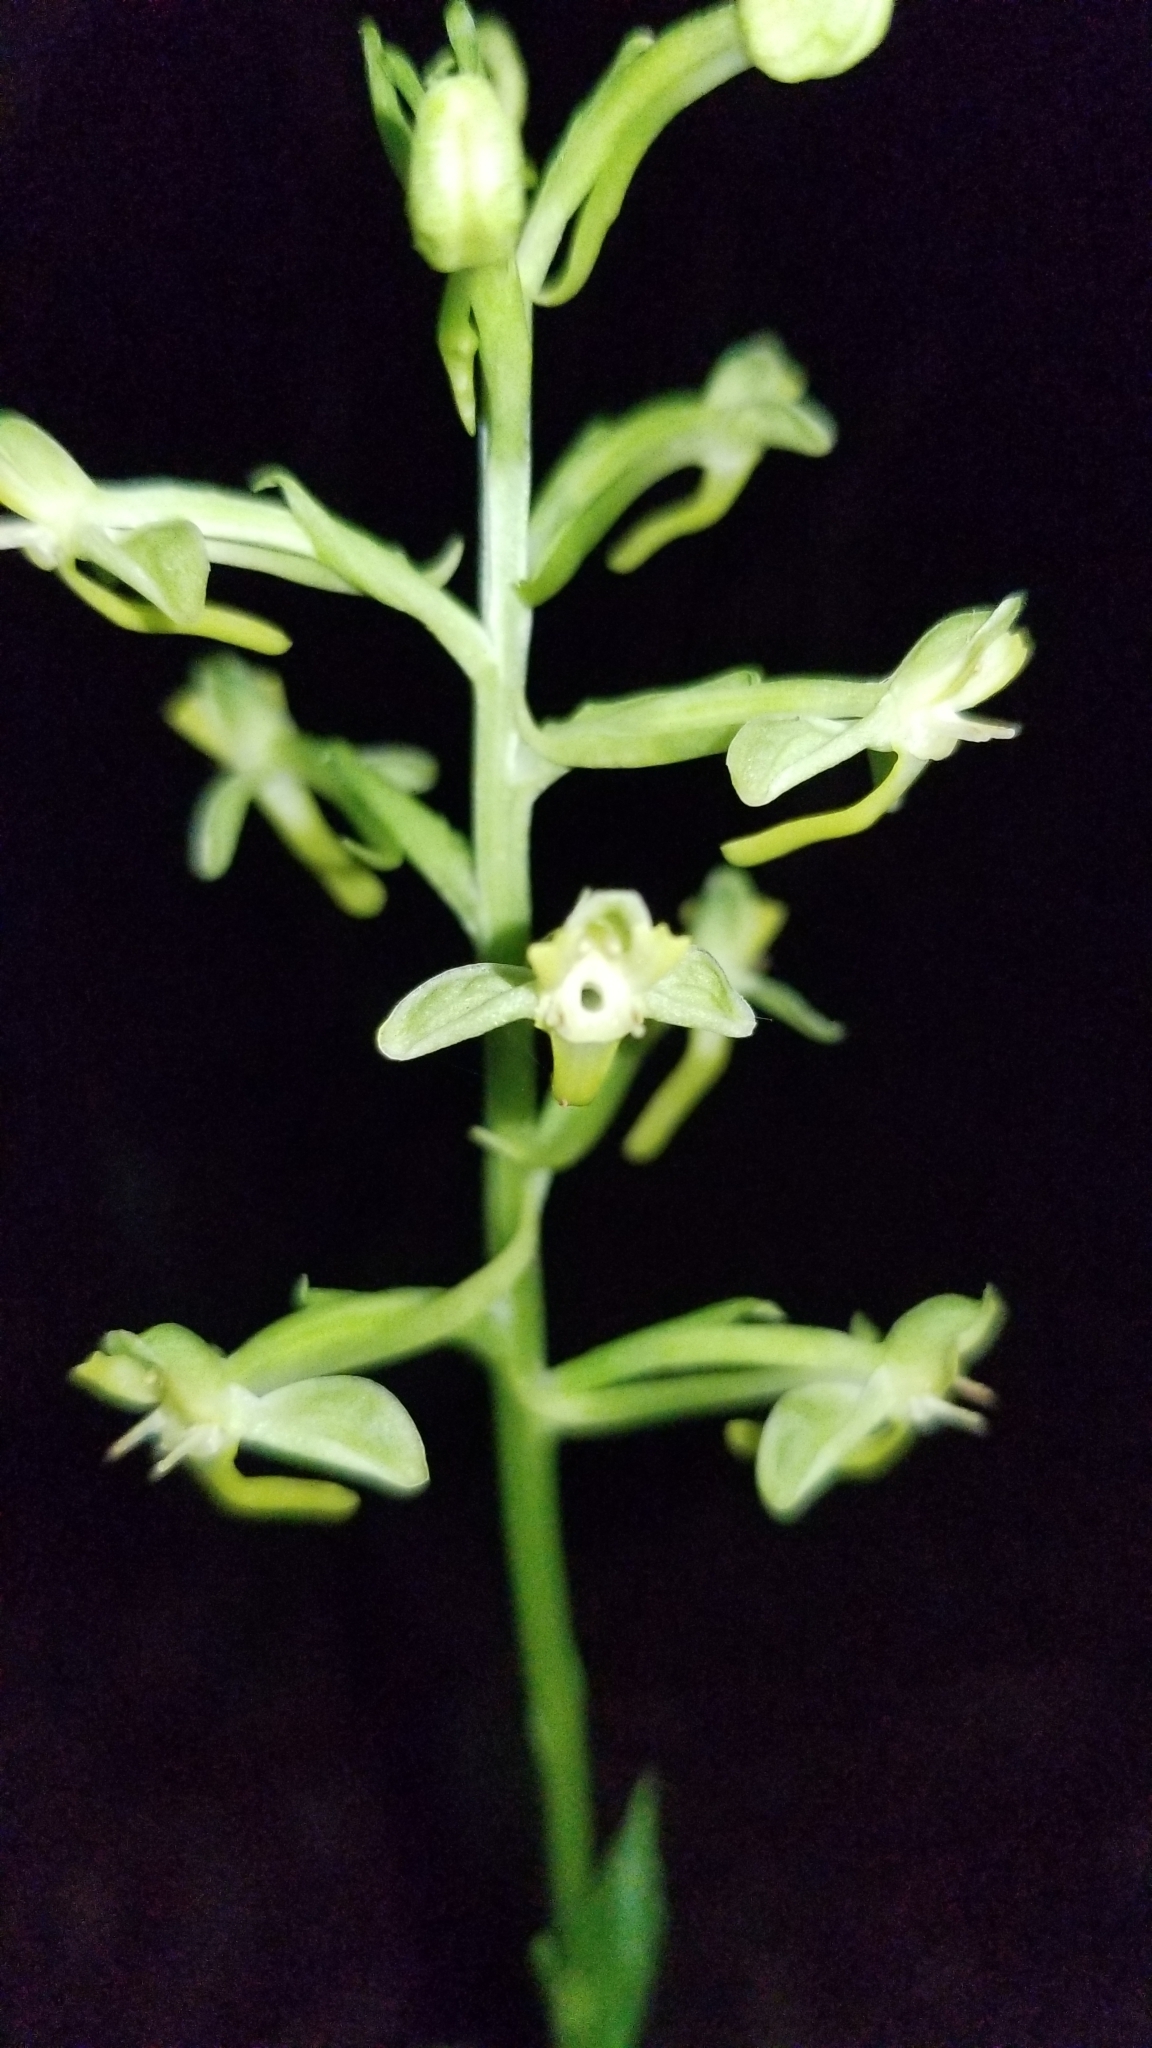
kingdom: Plantae
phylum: Tracheophyta
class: Liliopsida
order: Asparagales
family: Orchidaceae
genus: Habenaria
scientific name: Habenaria floribunda
